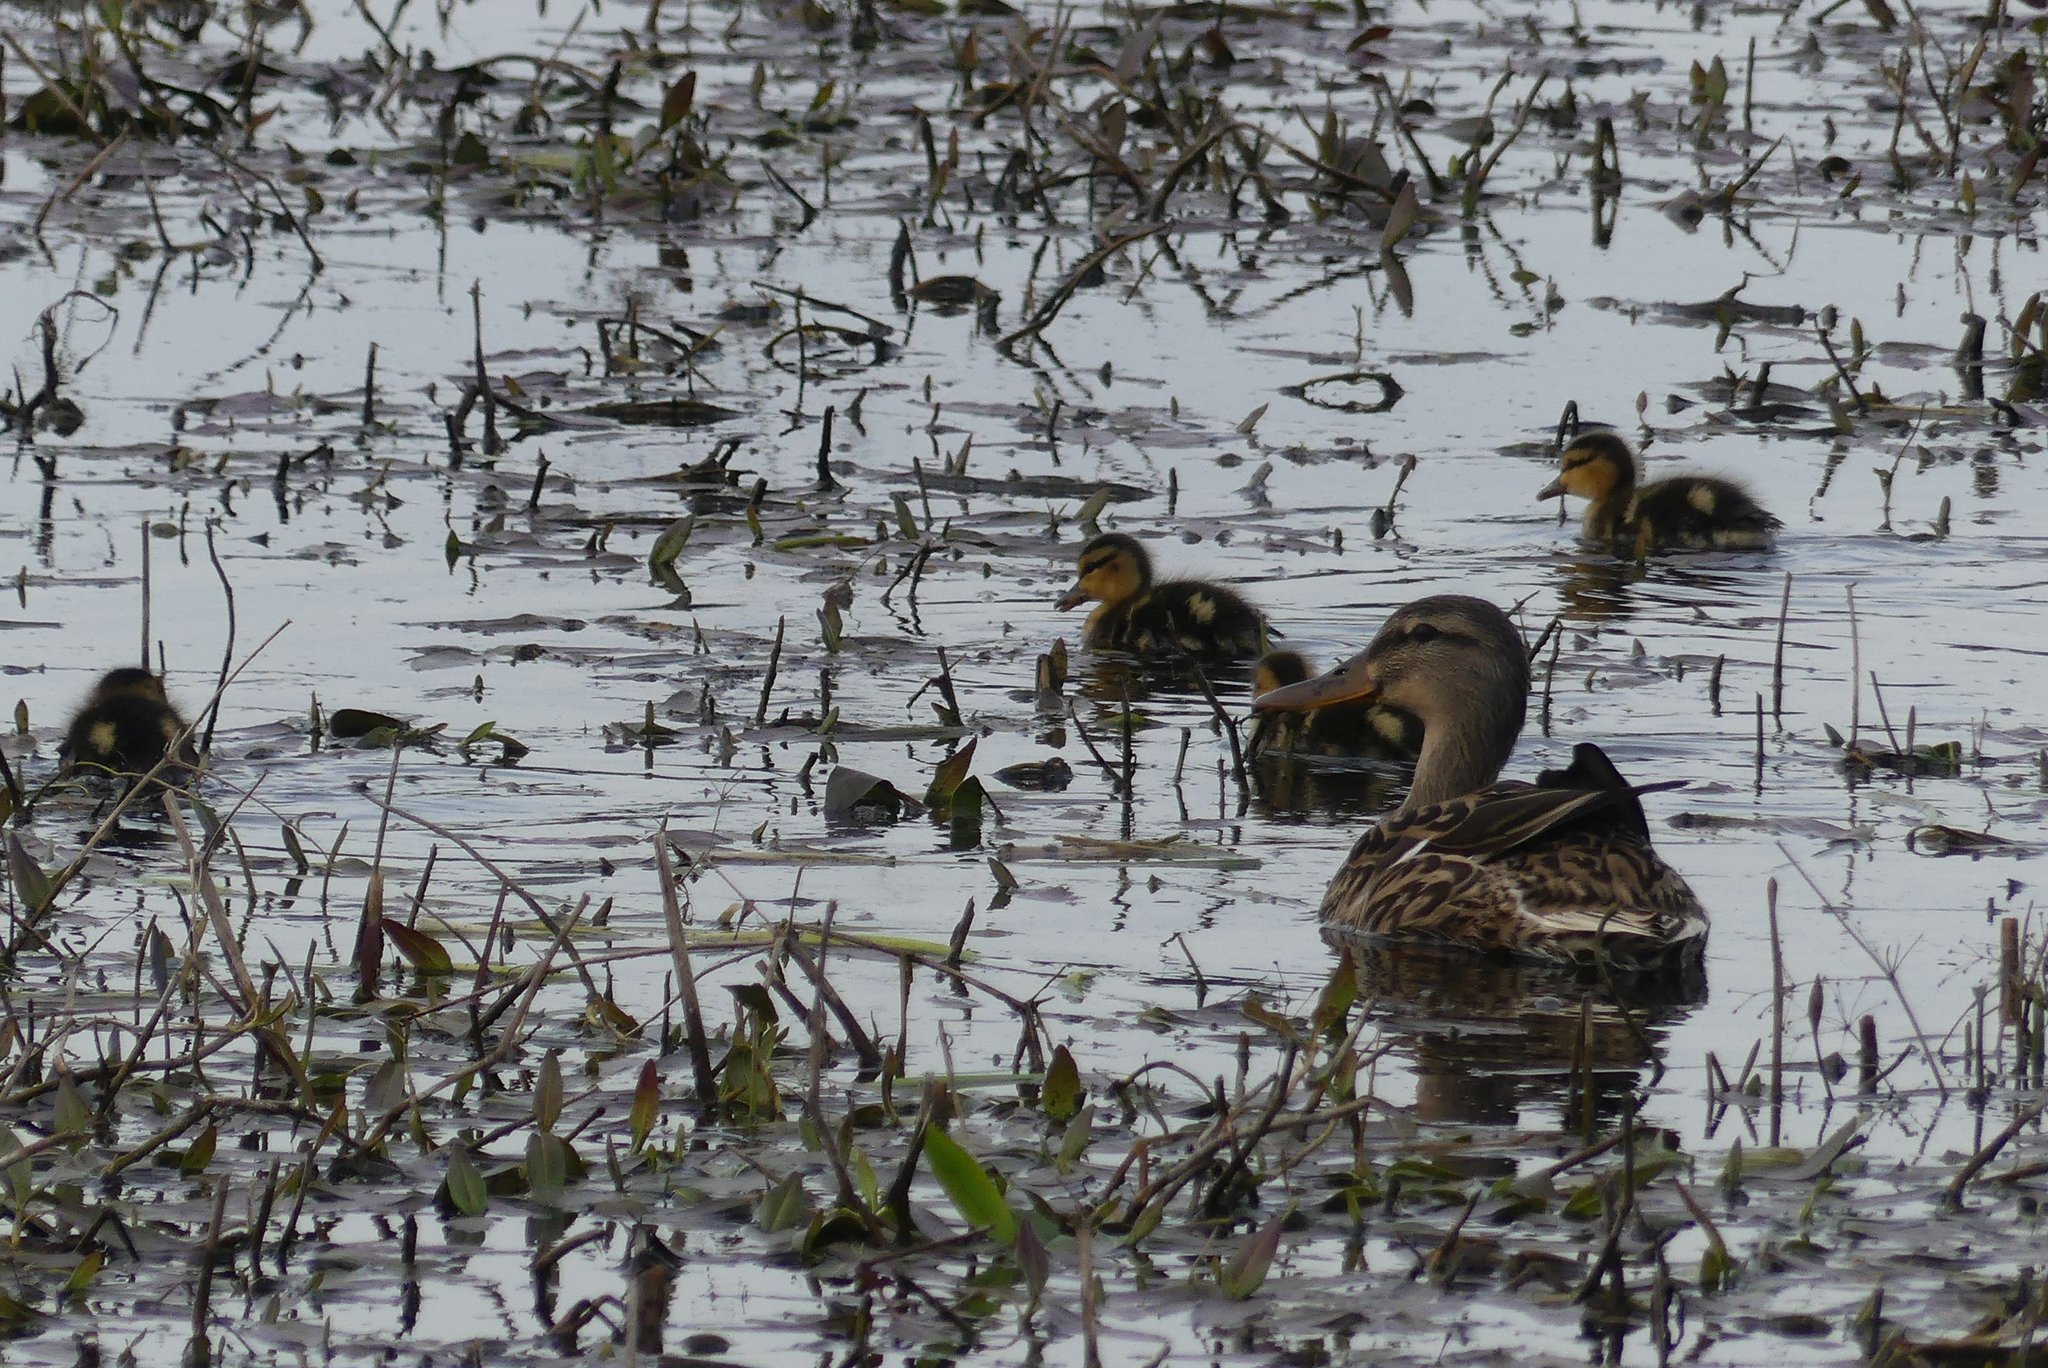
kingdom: Animalia
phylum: Chordata
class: Aves
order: Anseriformes
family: Anatidae
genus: Anas
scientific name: Anas platyrhynchos
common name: Mallard
